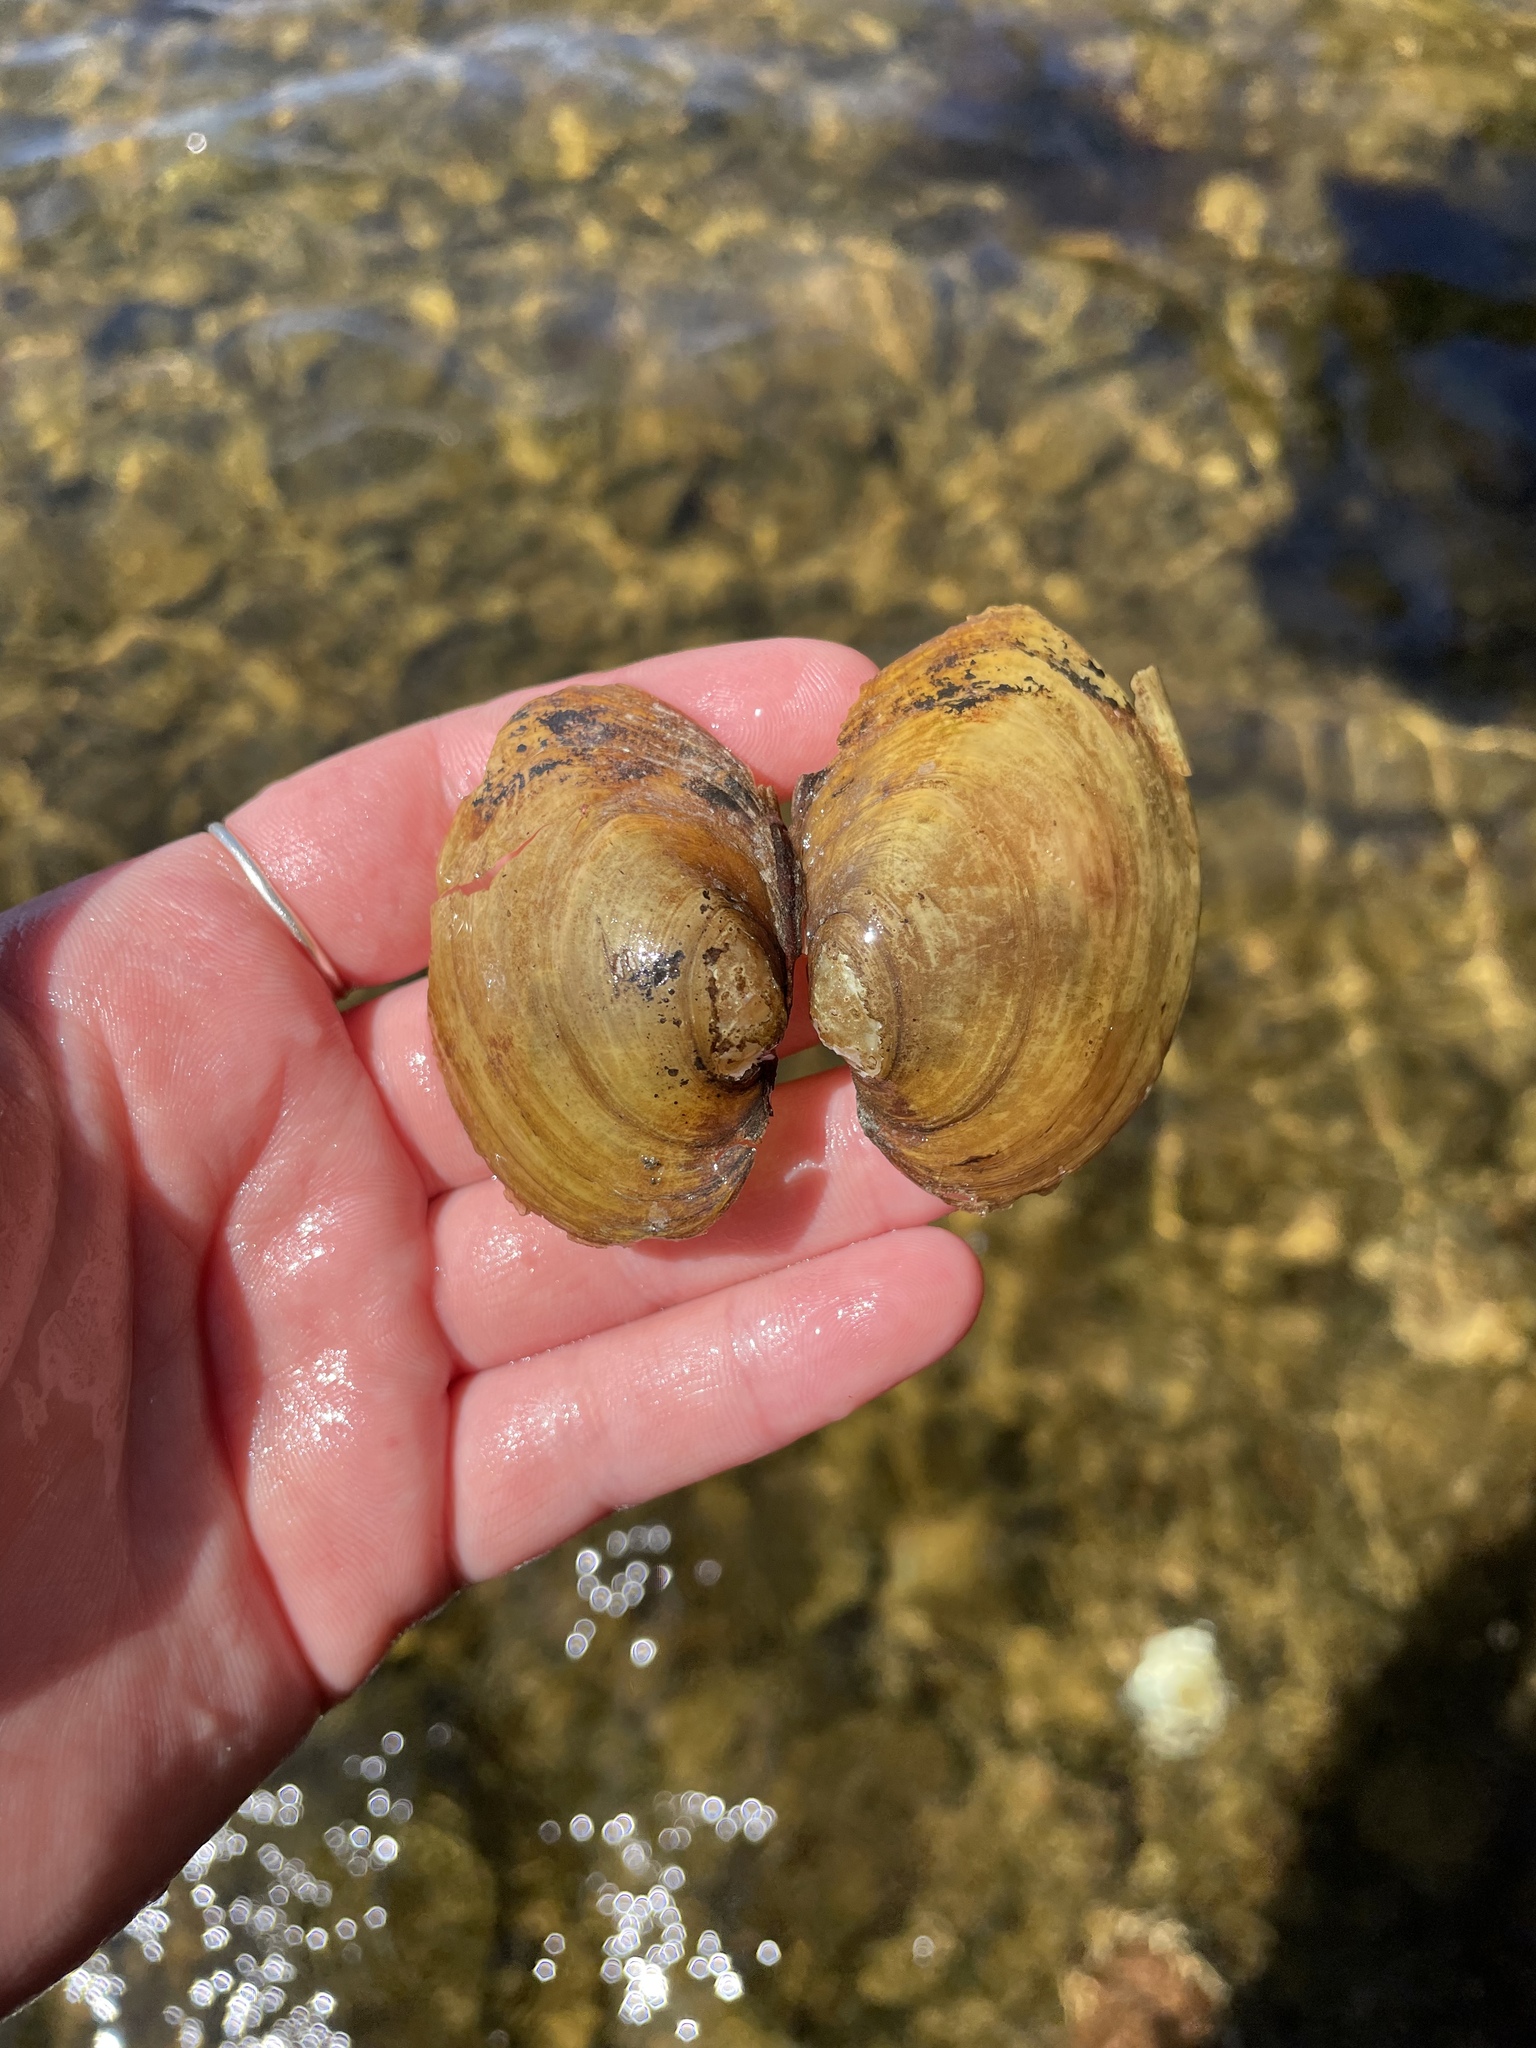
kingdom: Animalia
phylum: Mollusca
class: Bivalvia
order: Unionida
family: Unionidae
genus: Lampsilis
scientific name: Lampsilis cariosa
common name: Yellow lampmussel
